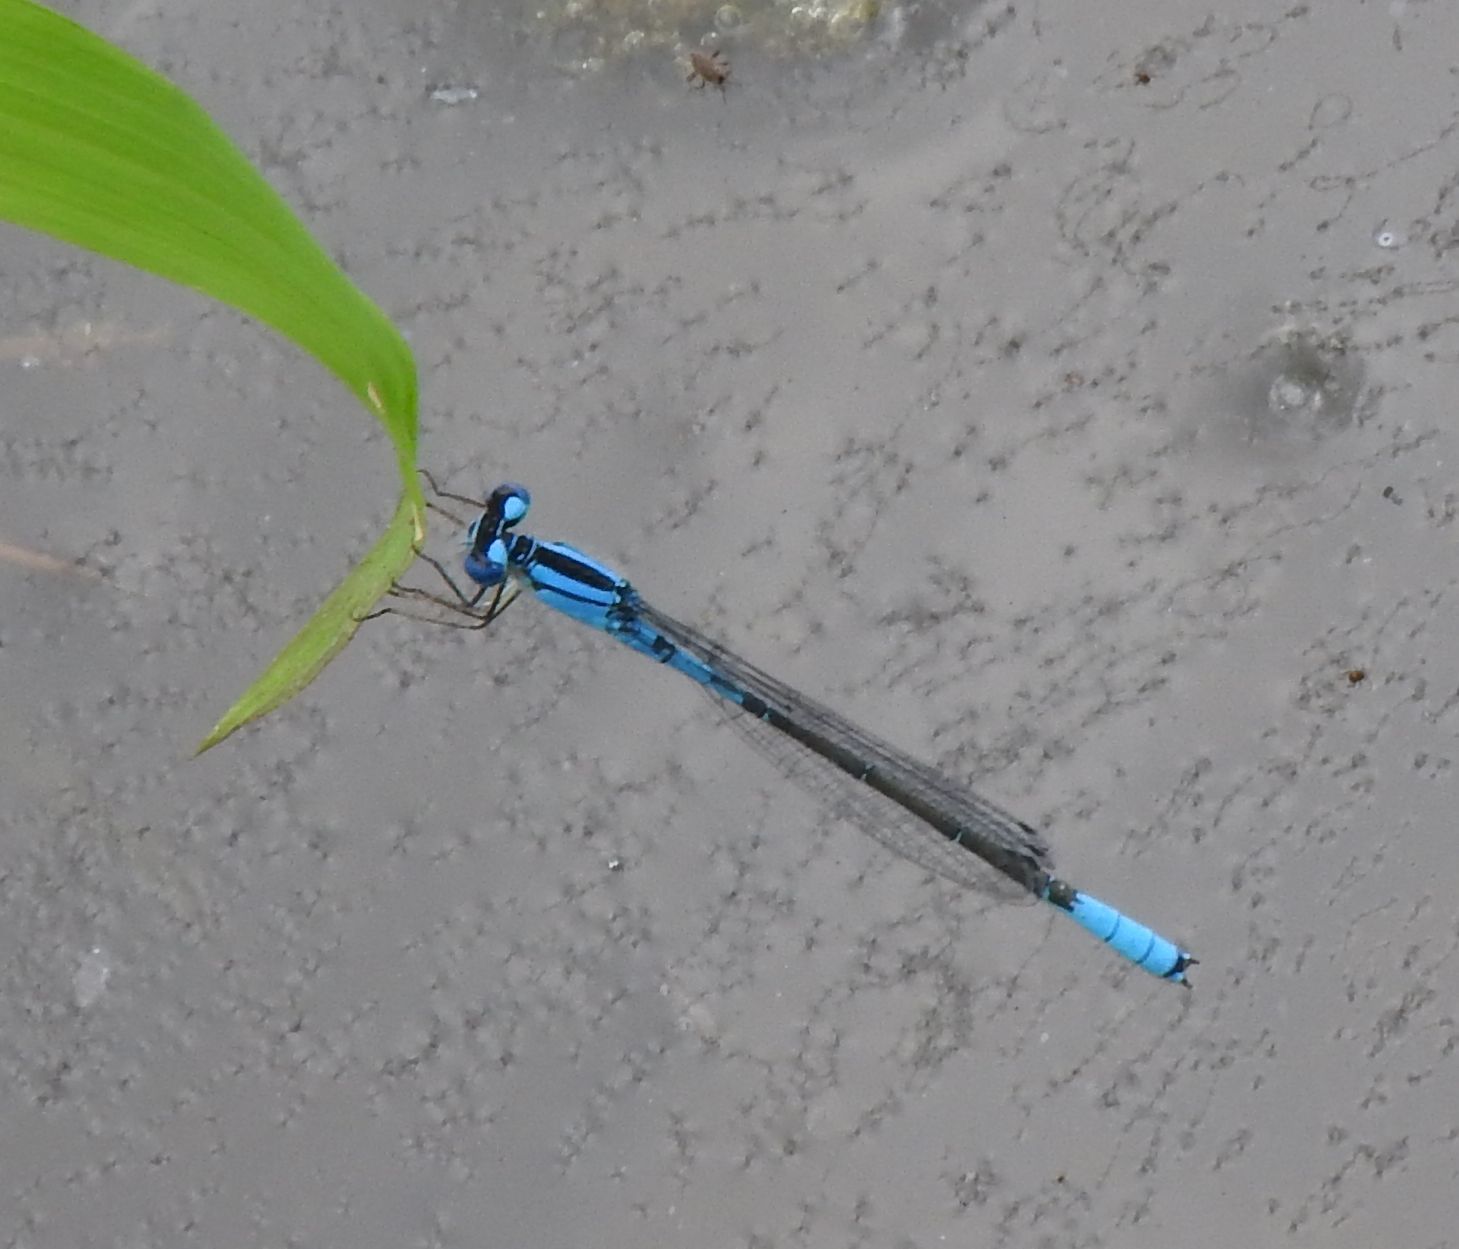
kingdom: Animalia
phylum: Arthropoda
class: Insecta
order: Odonata
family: Coenagrionidae
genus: Enallagma
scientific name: Enallagma aspersum
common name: Azure bluet
